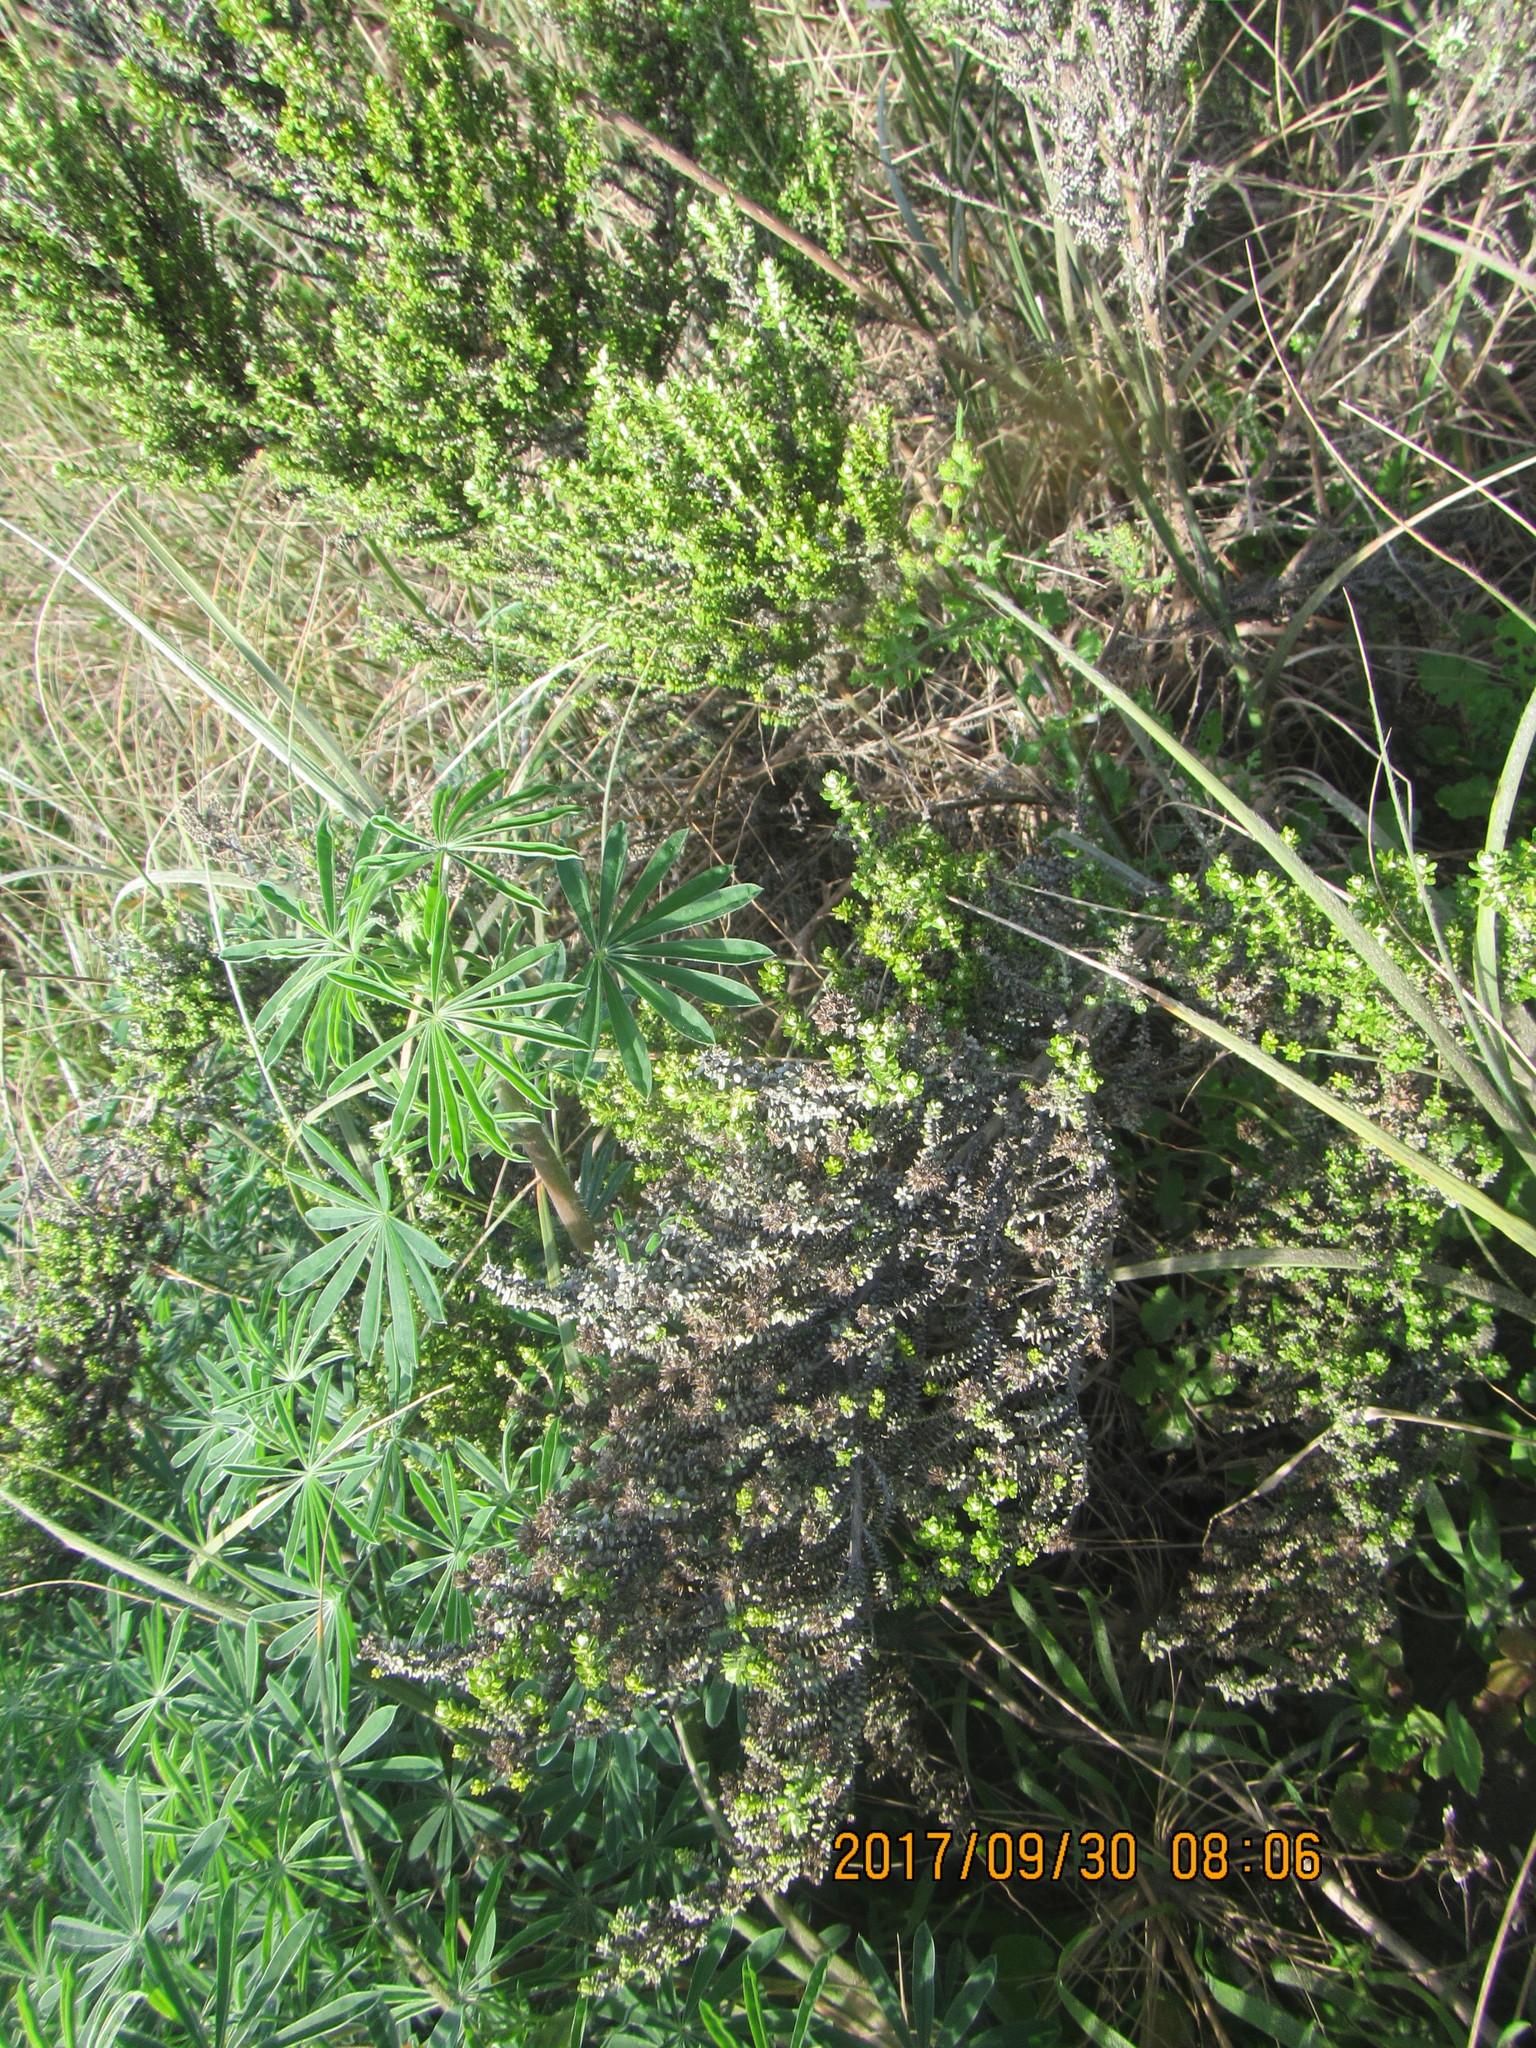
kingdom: Plantae
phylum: Tracheophyta
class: Magnoliopsida
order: Asterales
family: Asteraceae
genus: Ozothamnus
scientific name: Ozothamnus leptophyllus
